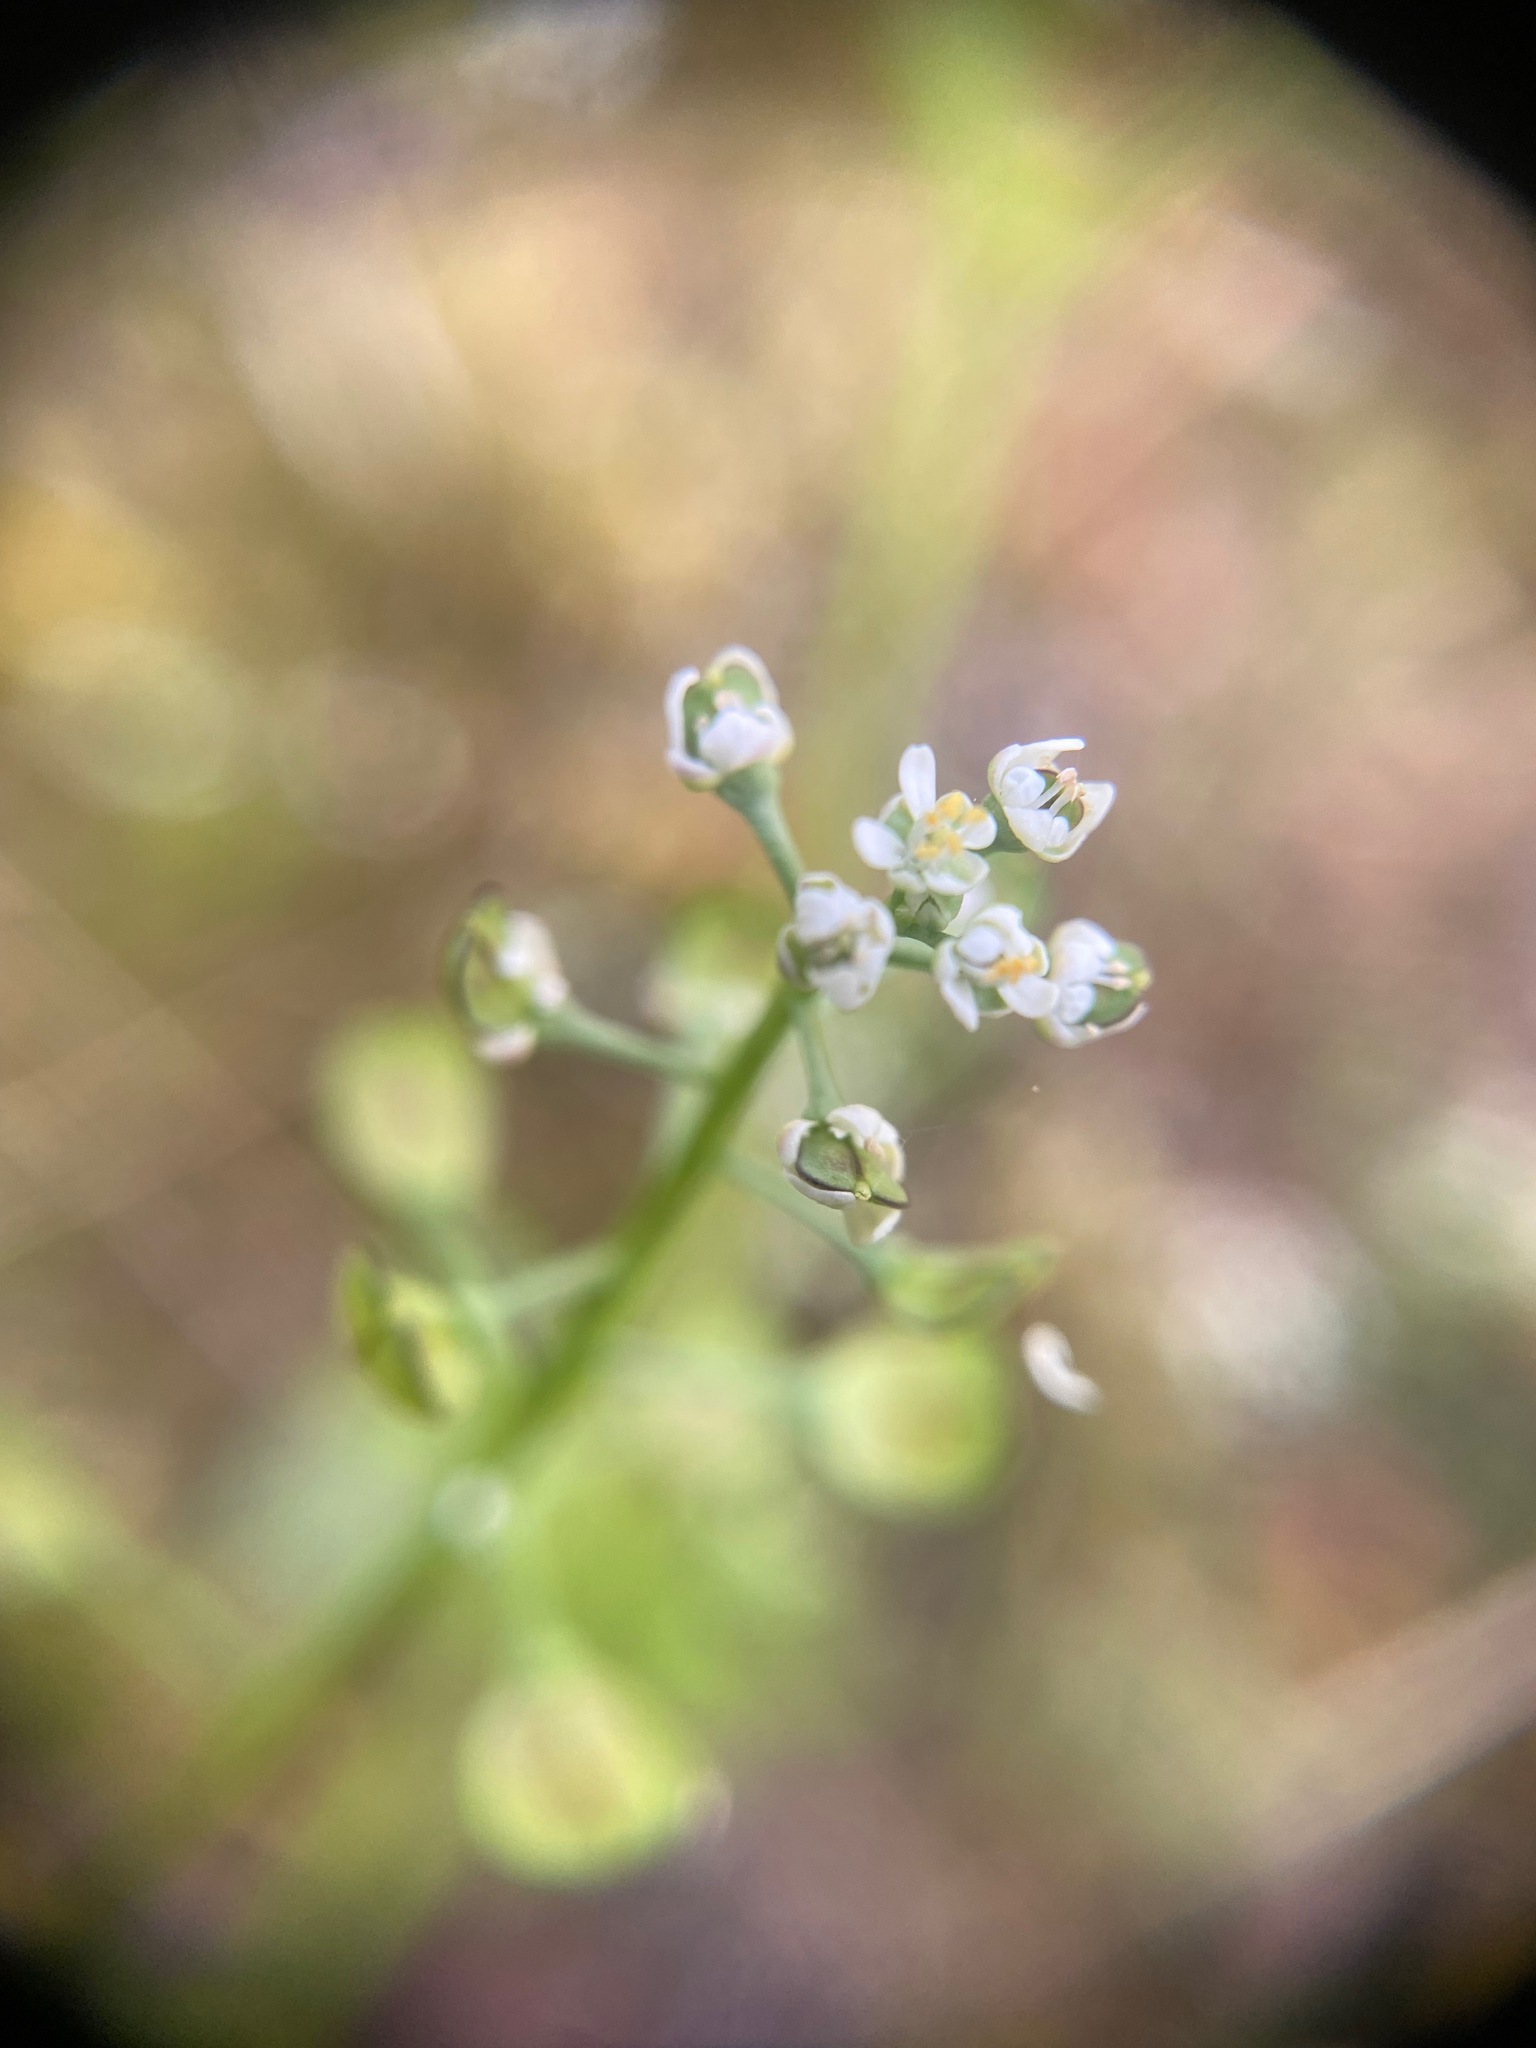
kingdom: Plantae
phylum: Tracheophyta
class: Magnoliopsida
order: Brassicales
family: Brassicaceae
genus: Teesdalia
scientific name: Teesdalia nudicaulis
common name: Shepherd's cress
